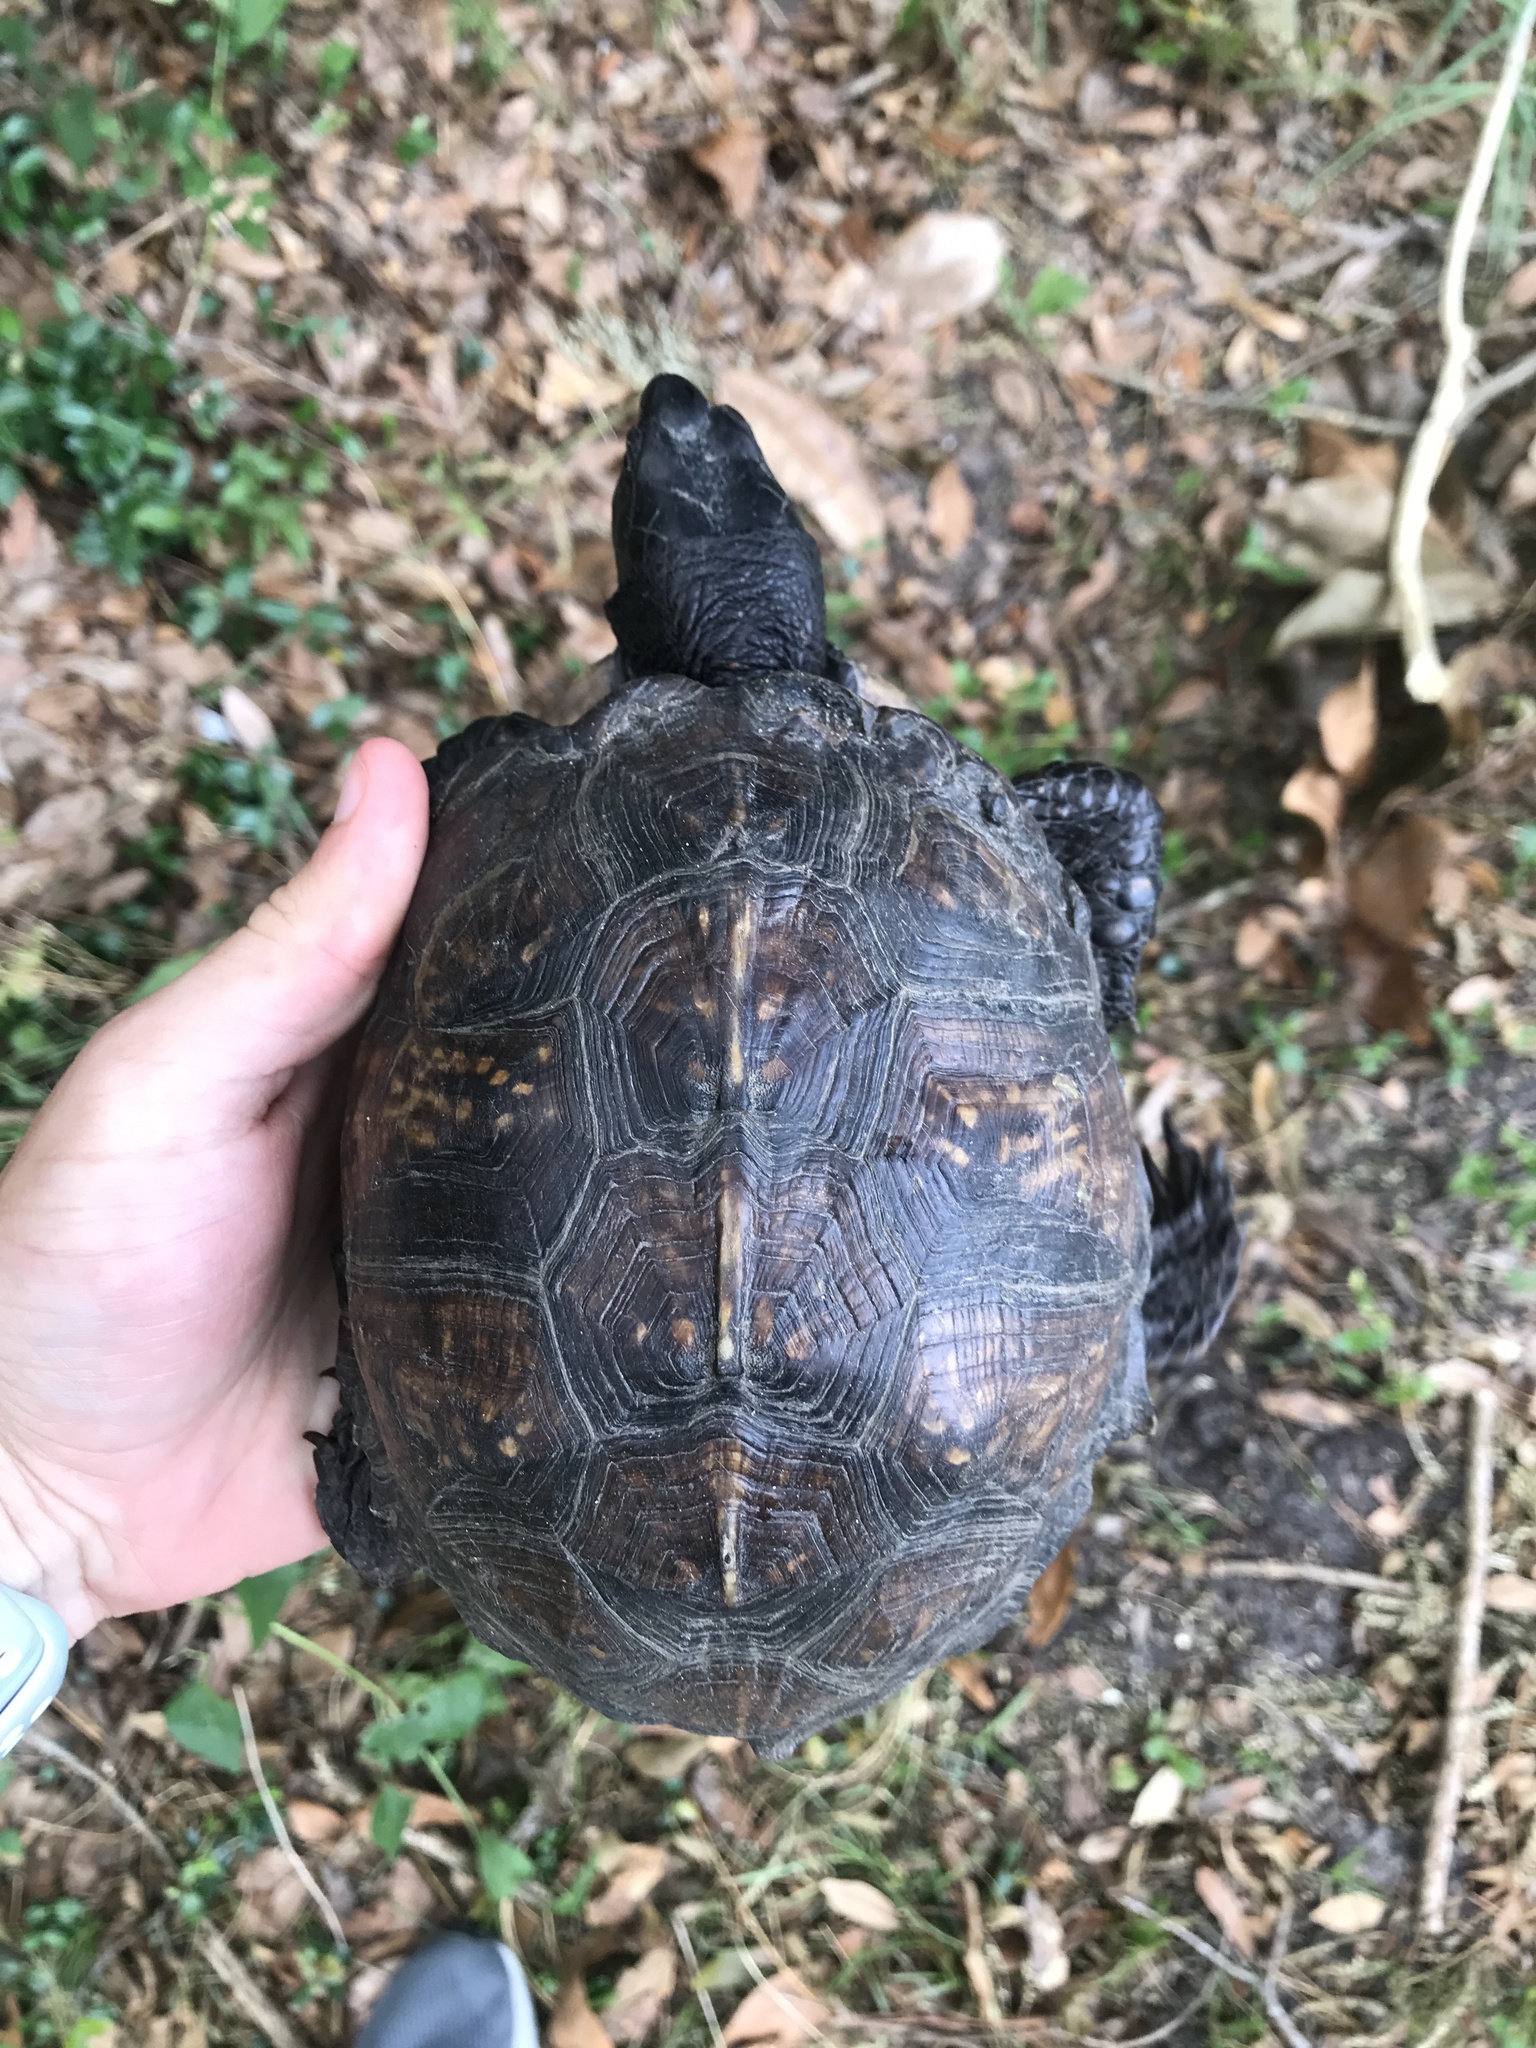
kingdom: Animalia
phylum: Chordata
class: Testudines
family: Emydidae
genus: Terrapene
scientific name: Terrapene carolina
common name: Common box turtle
